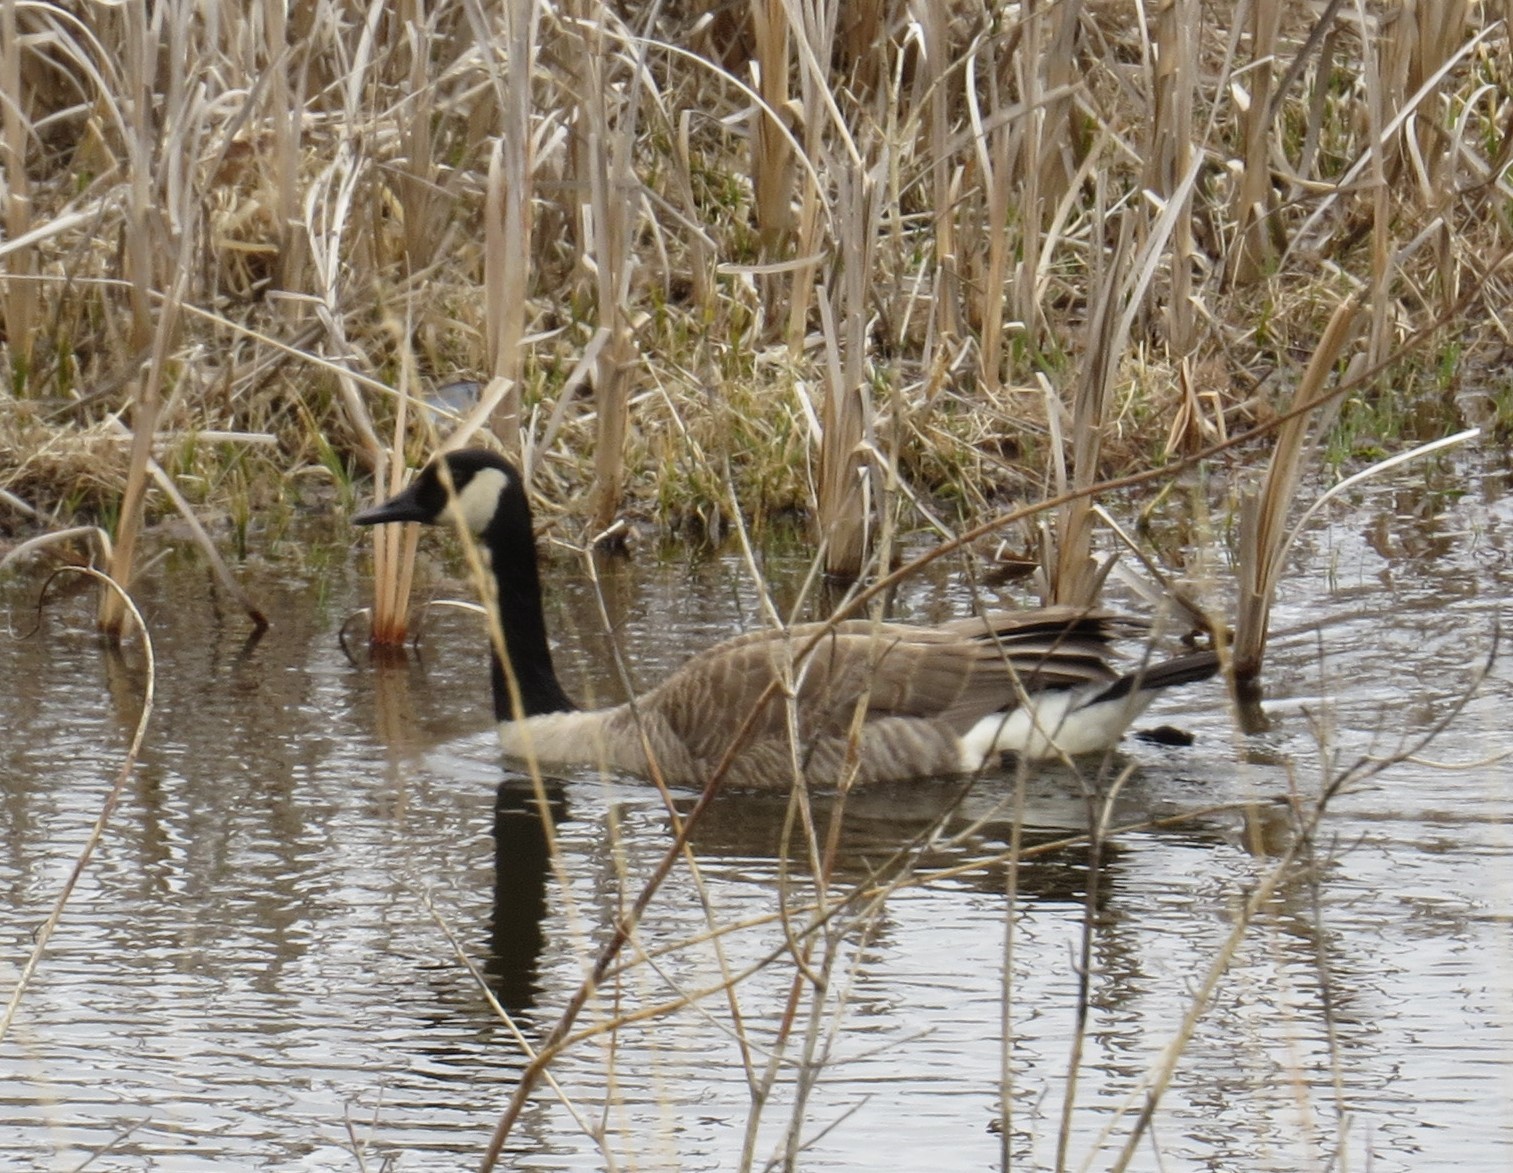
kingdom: Animalia
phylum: Chordata
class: Aves
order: Anseriformes
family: Anatidae
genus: Branta
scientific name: Branta canadensis
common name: Canada goose
